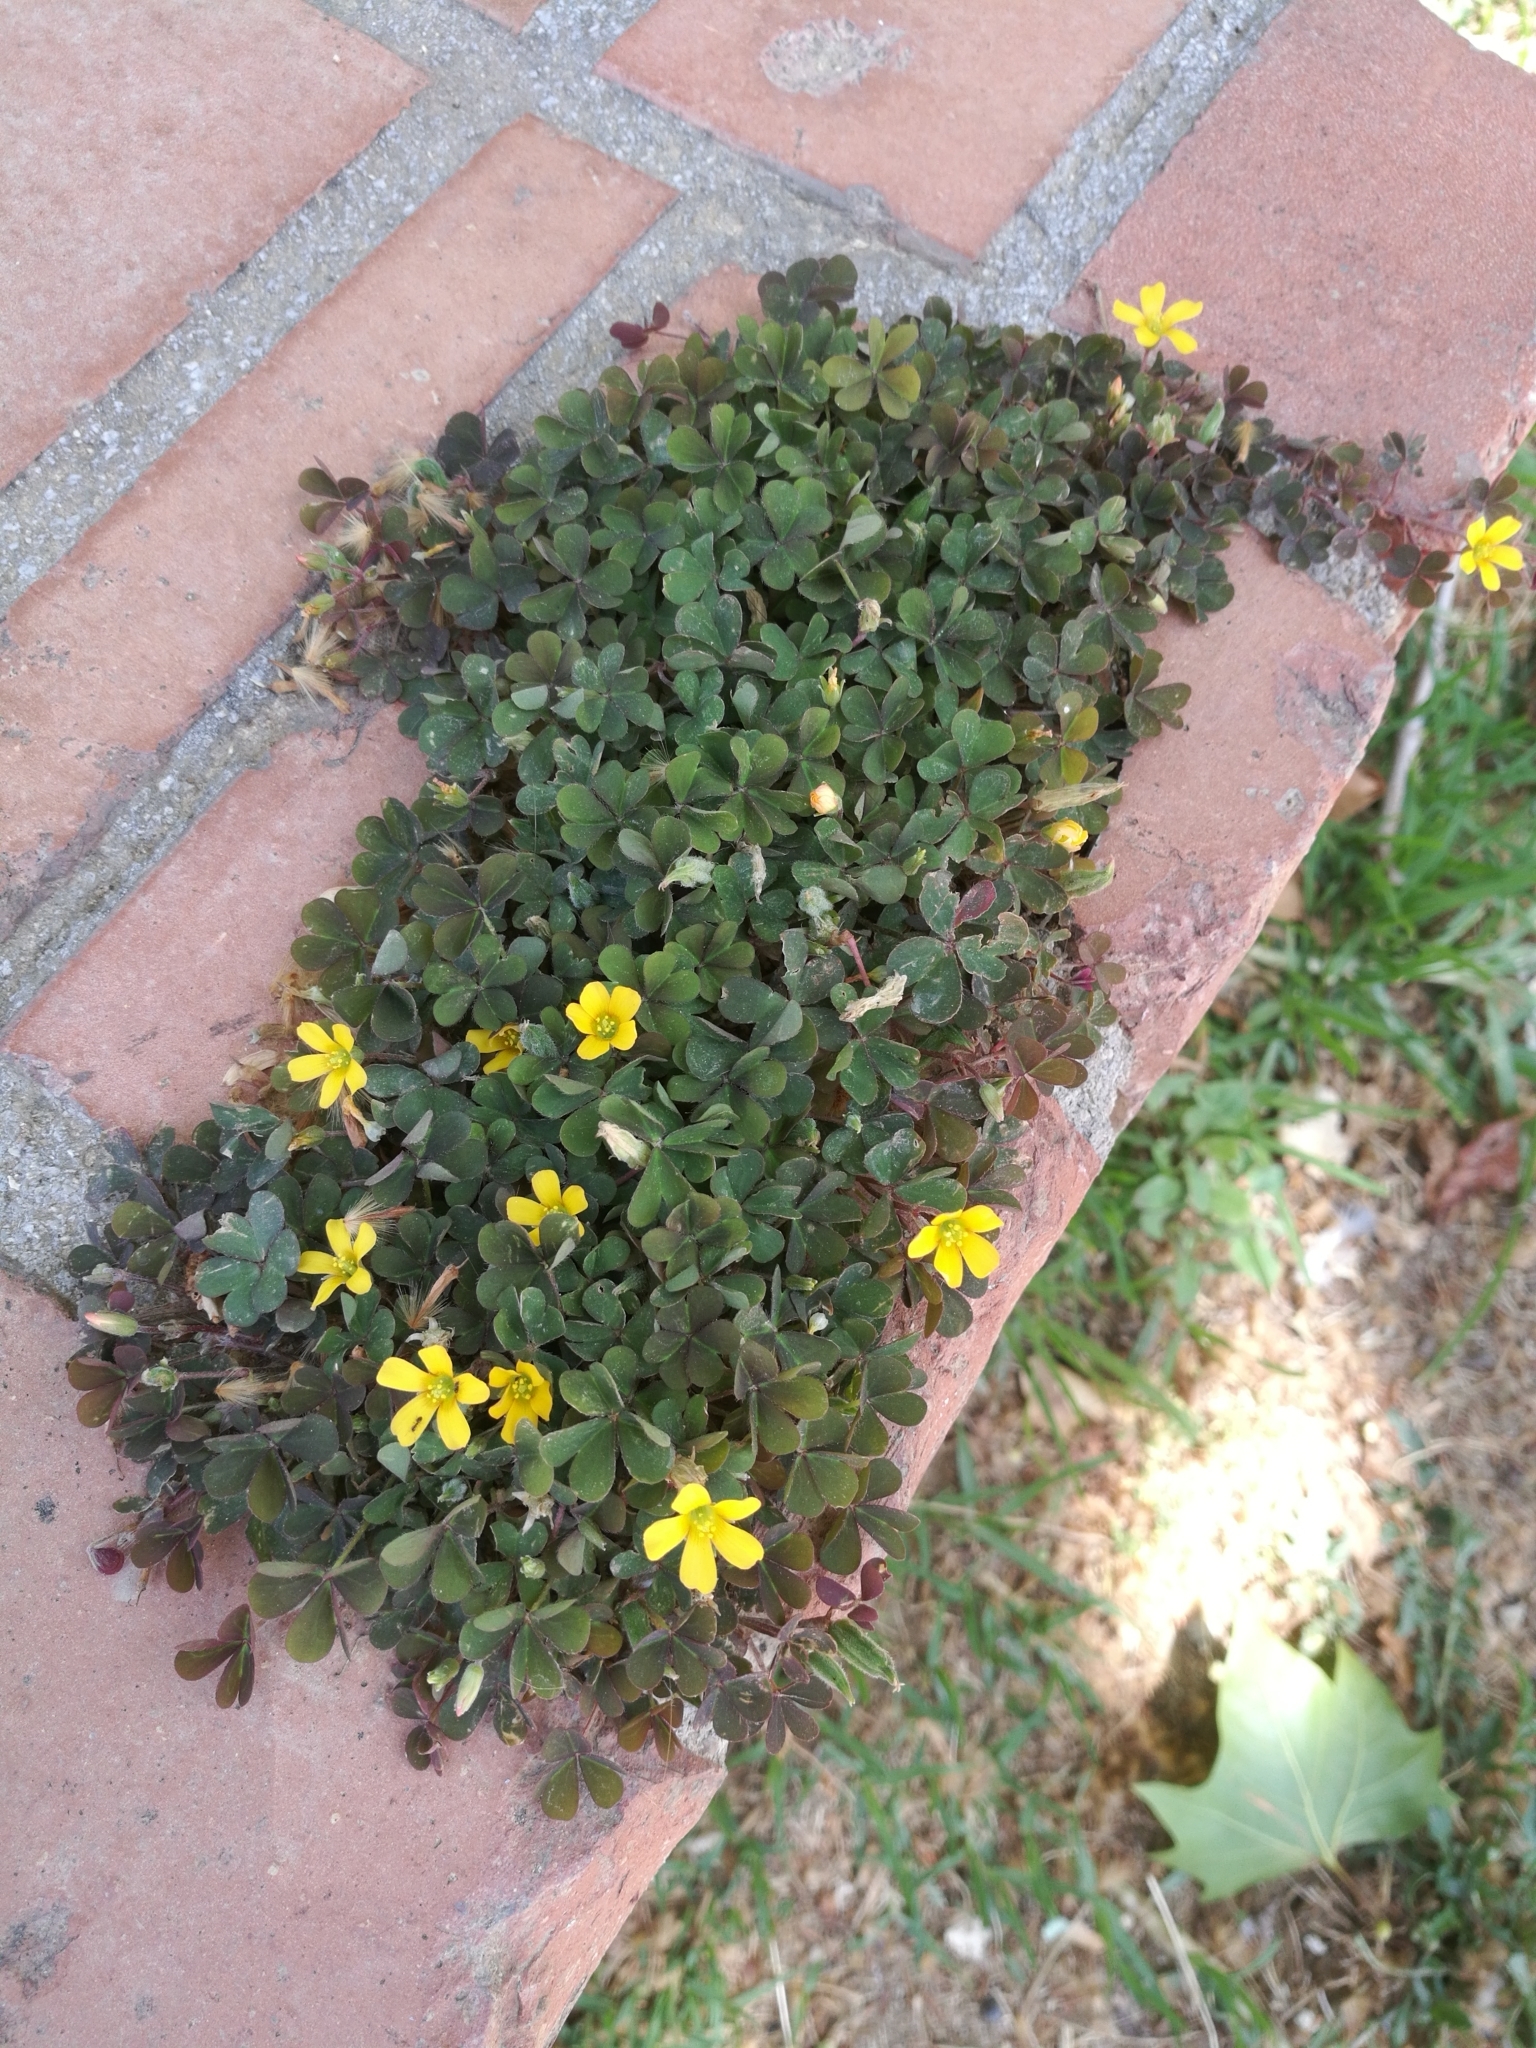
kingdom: Plantae
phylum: Tracheophyta
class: Magnoliopsida
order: Oxalidales
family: Oxalidaceae
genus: Oxalis
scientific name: Oxalis corniculata
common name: Procumbent yellow-sorrel
